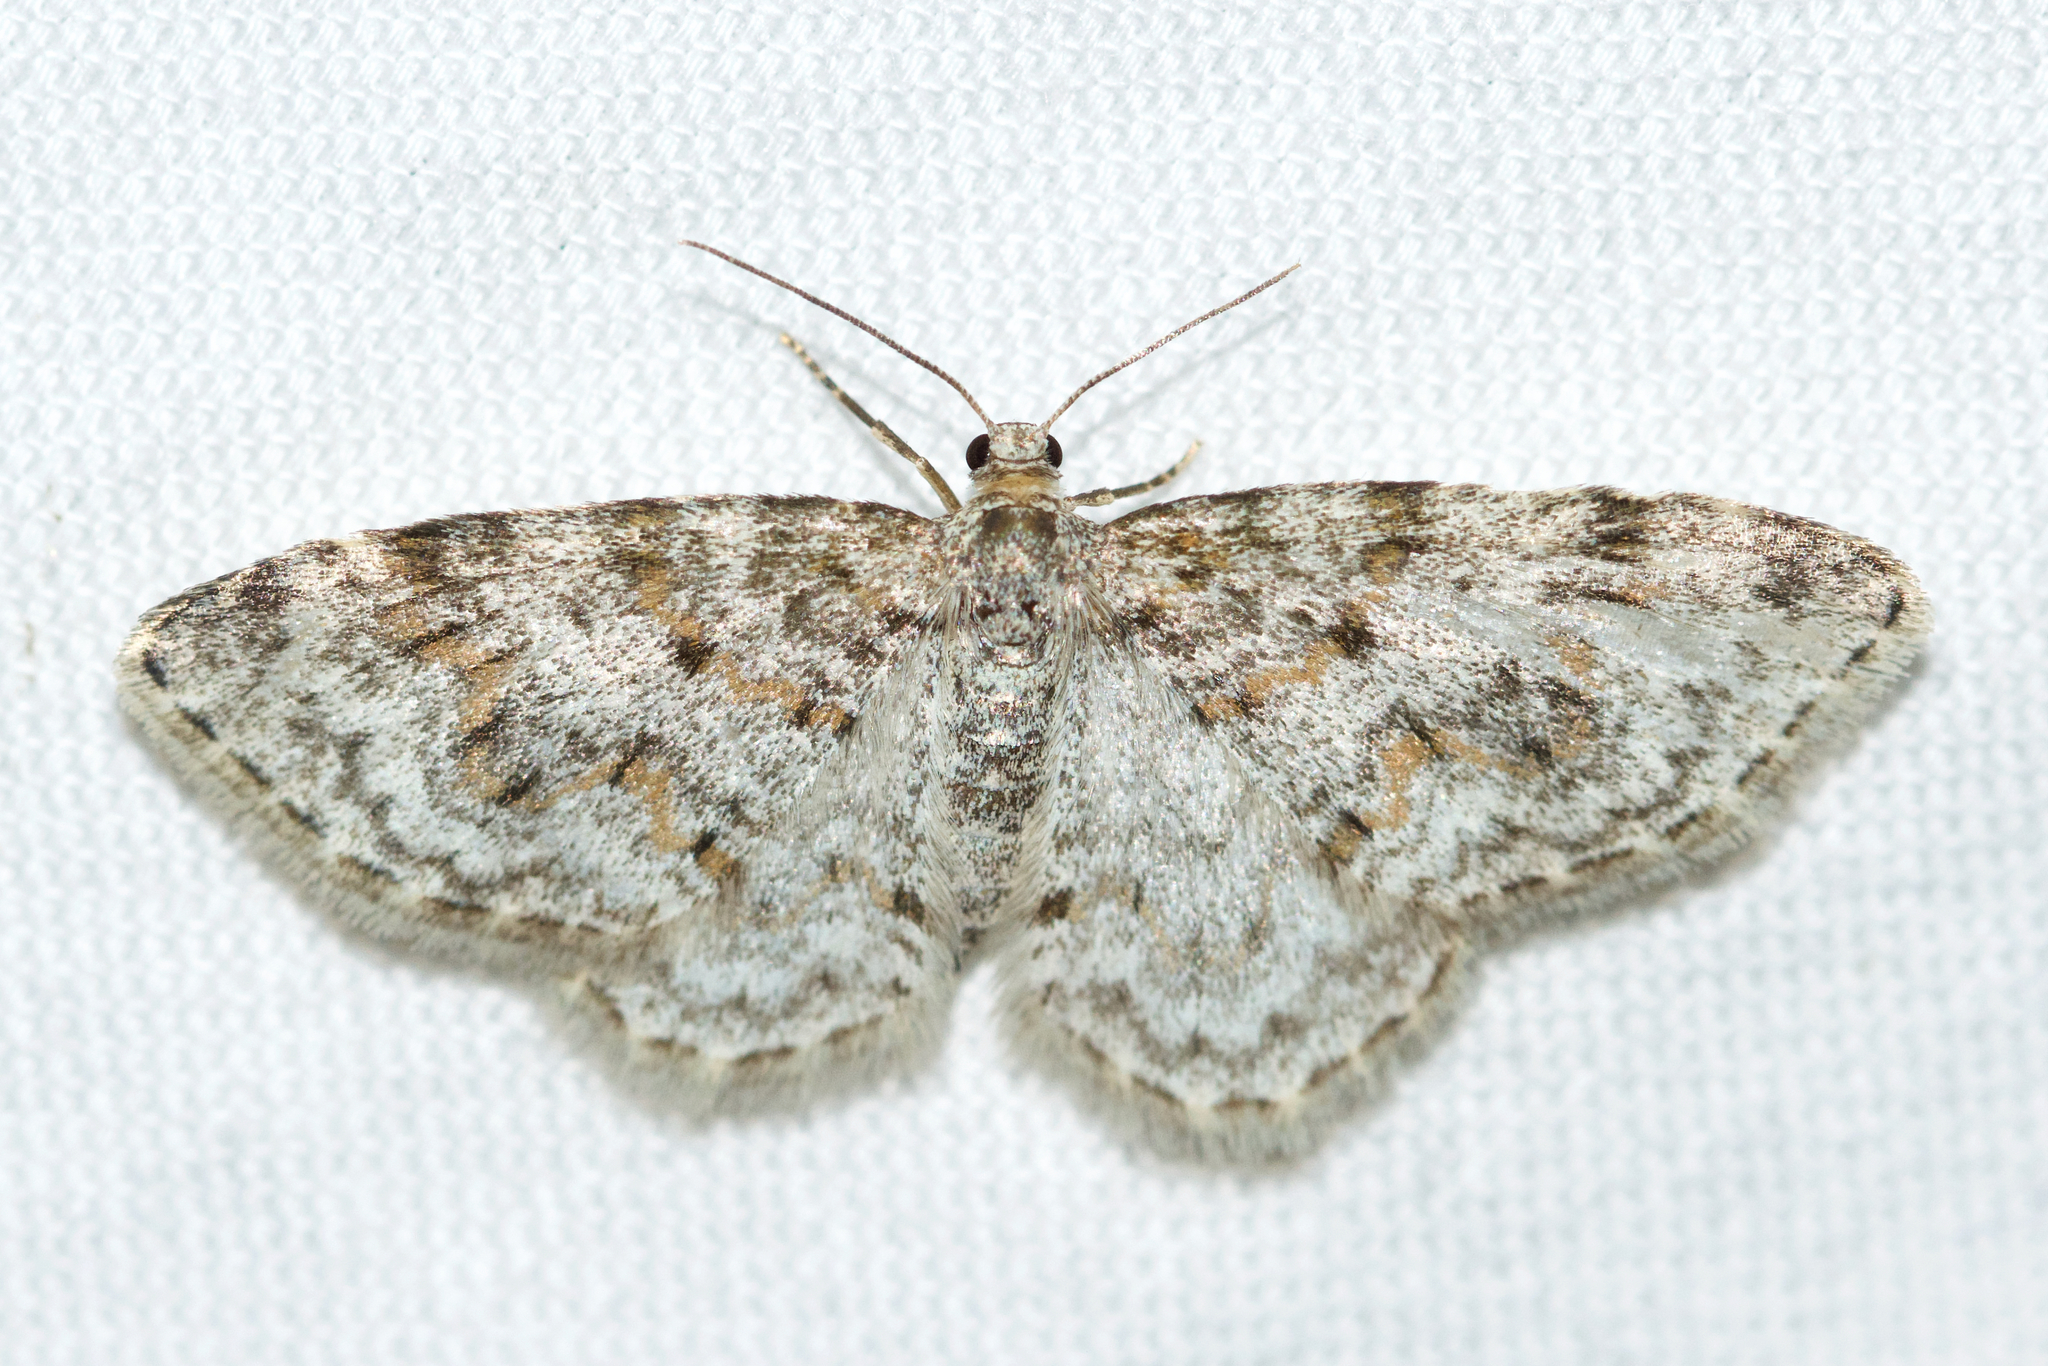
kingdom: Animalia
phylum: Arthropoda
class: Insecta
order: Lepidoptera
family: Geometridae
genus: Hydrelia
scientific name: Hydrelia inornata
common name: Unadorned carpet moth
